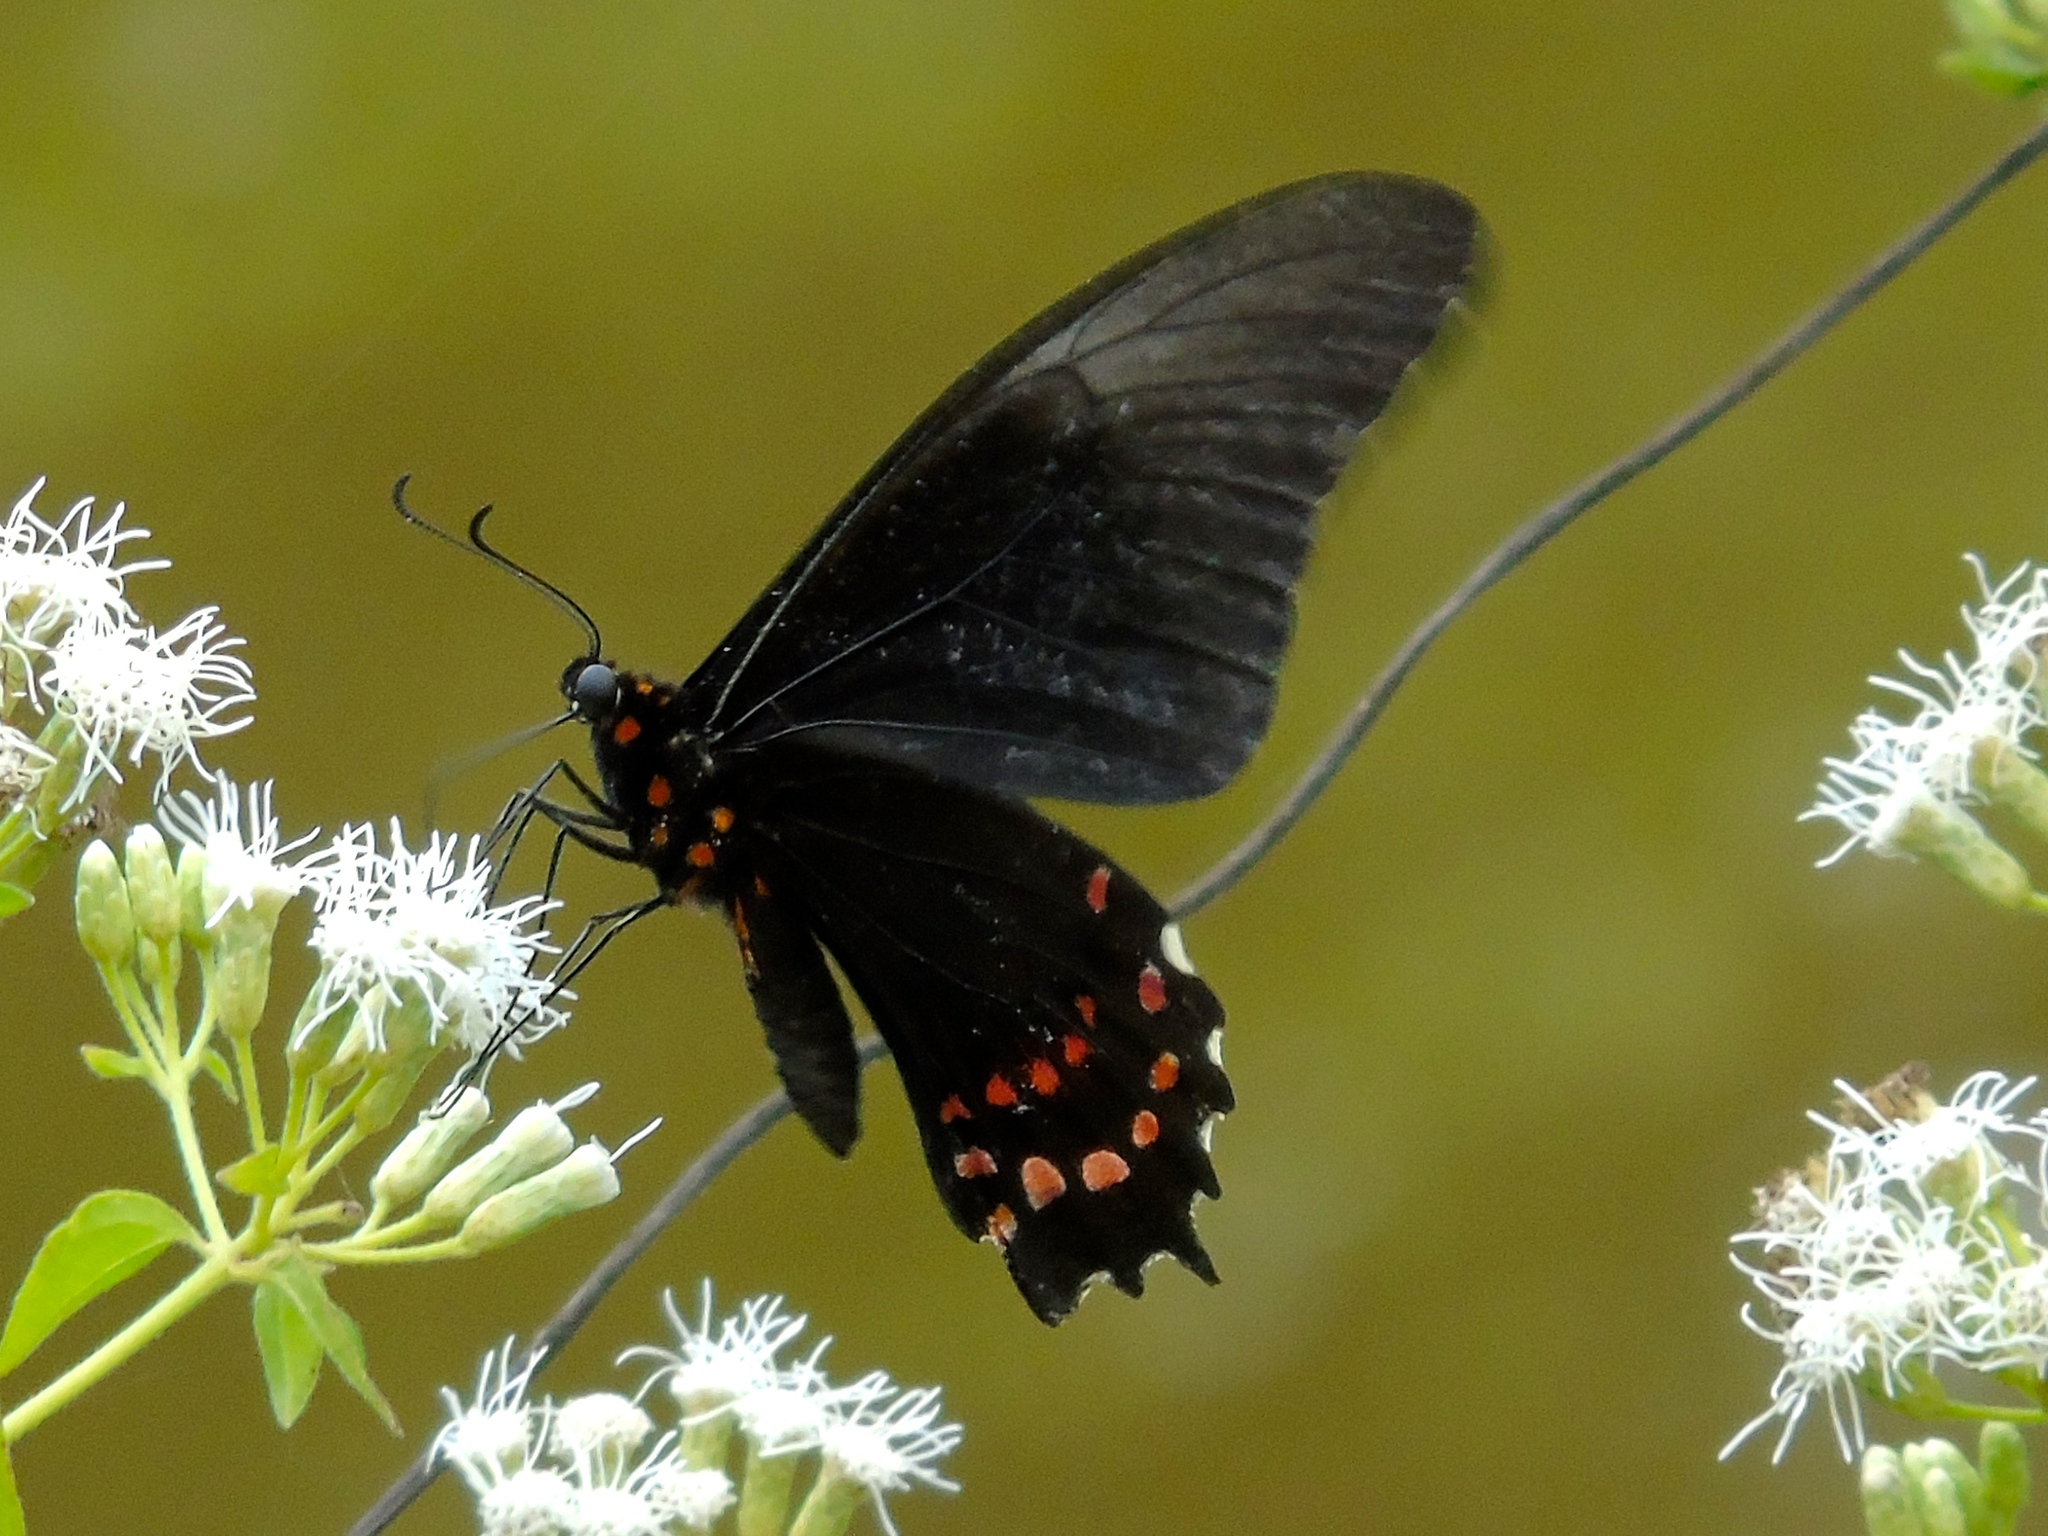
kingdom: Animalia
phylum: Arthropoda
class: Insecta
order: Lepidoptera
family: Papilionidae
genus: Heraclides
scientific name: Heraclides rogeri
